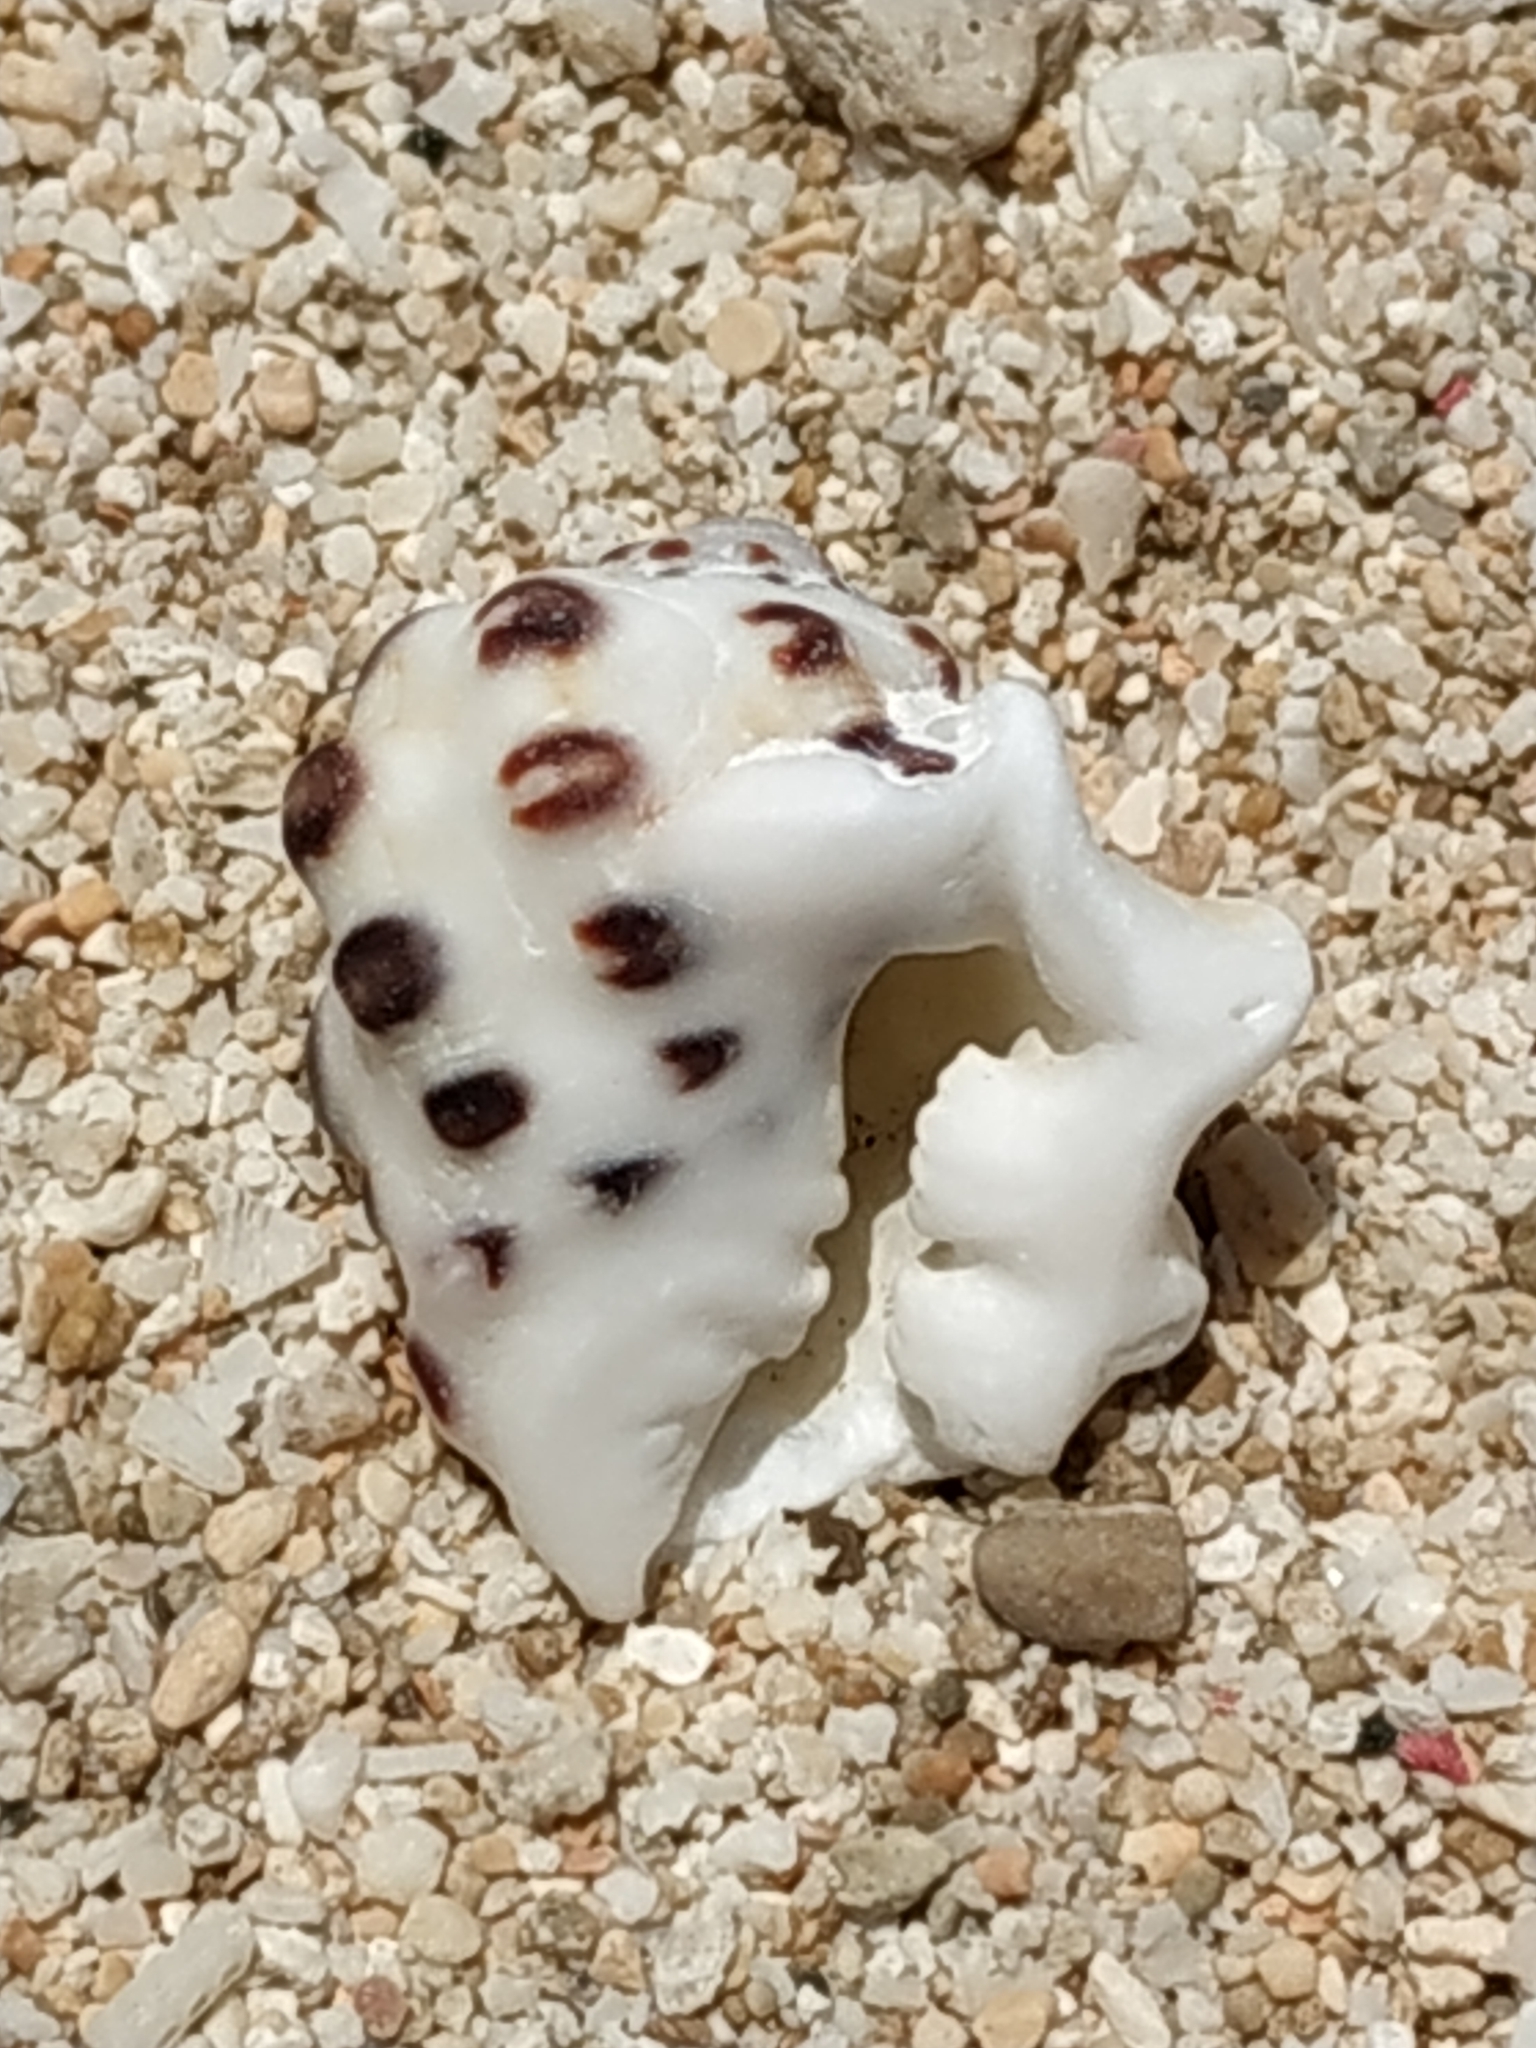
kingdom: Animalia
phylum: Mollusca
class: Gastropoda
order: Neogastropoda
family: Muricidae
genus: Drupa
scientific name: Drupa morum
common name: Purple drupe
